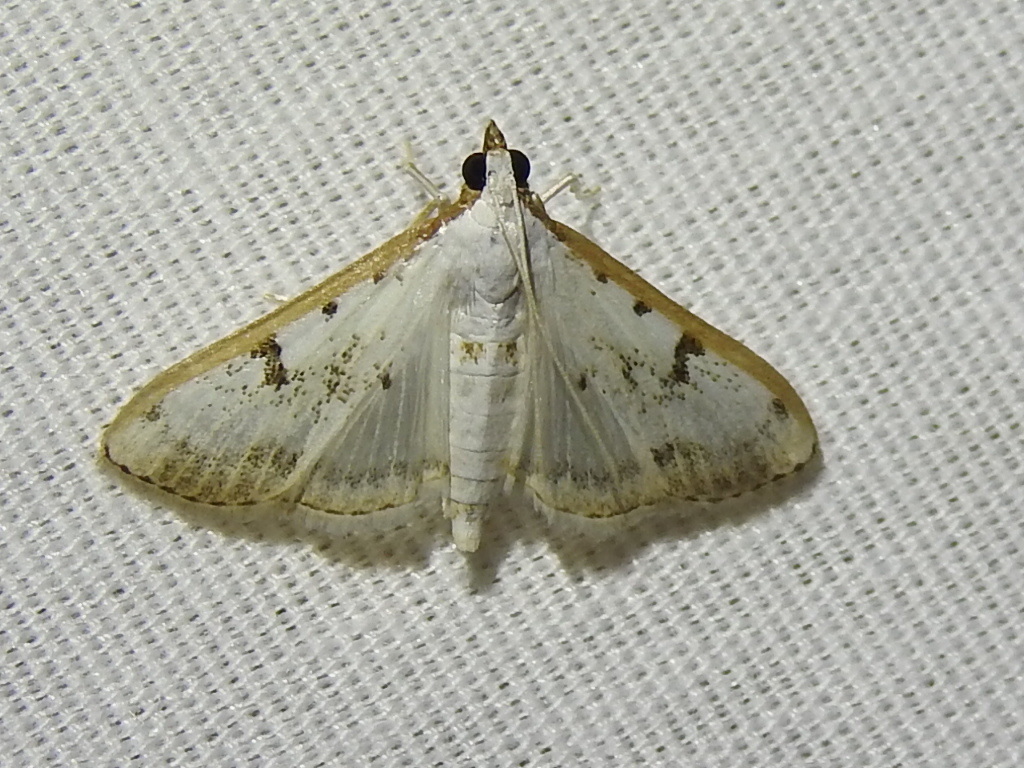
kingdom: Animalia
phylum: Arthropoda
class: Insecta
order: Lepidoptera
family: Crambidae
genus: Palpita
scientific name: Palpita gracilalis
